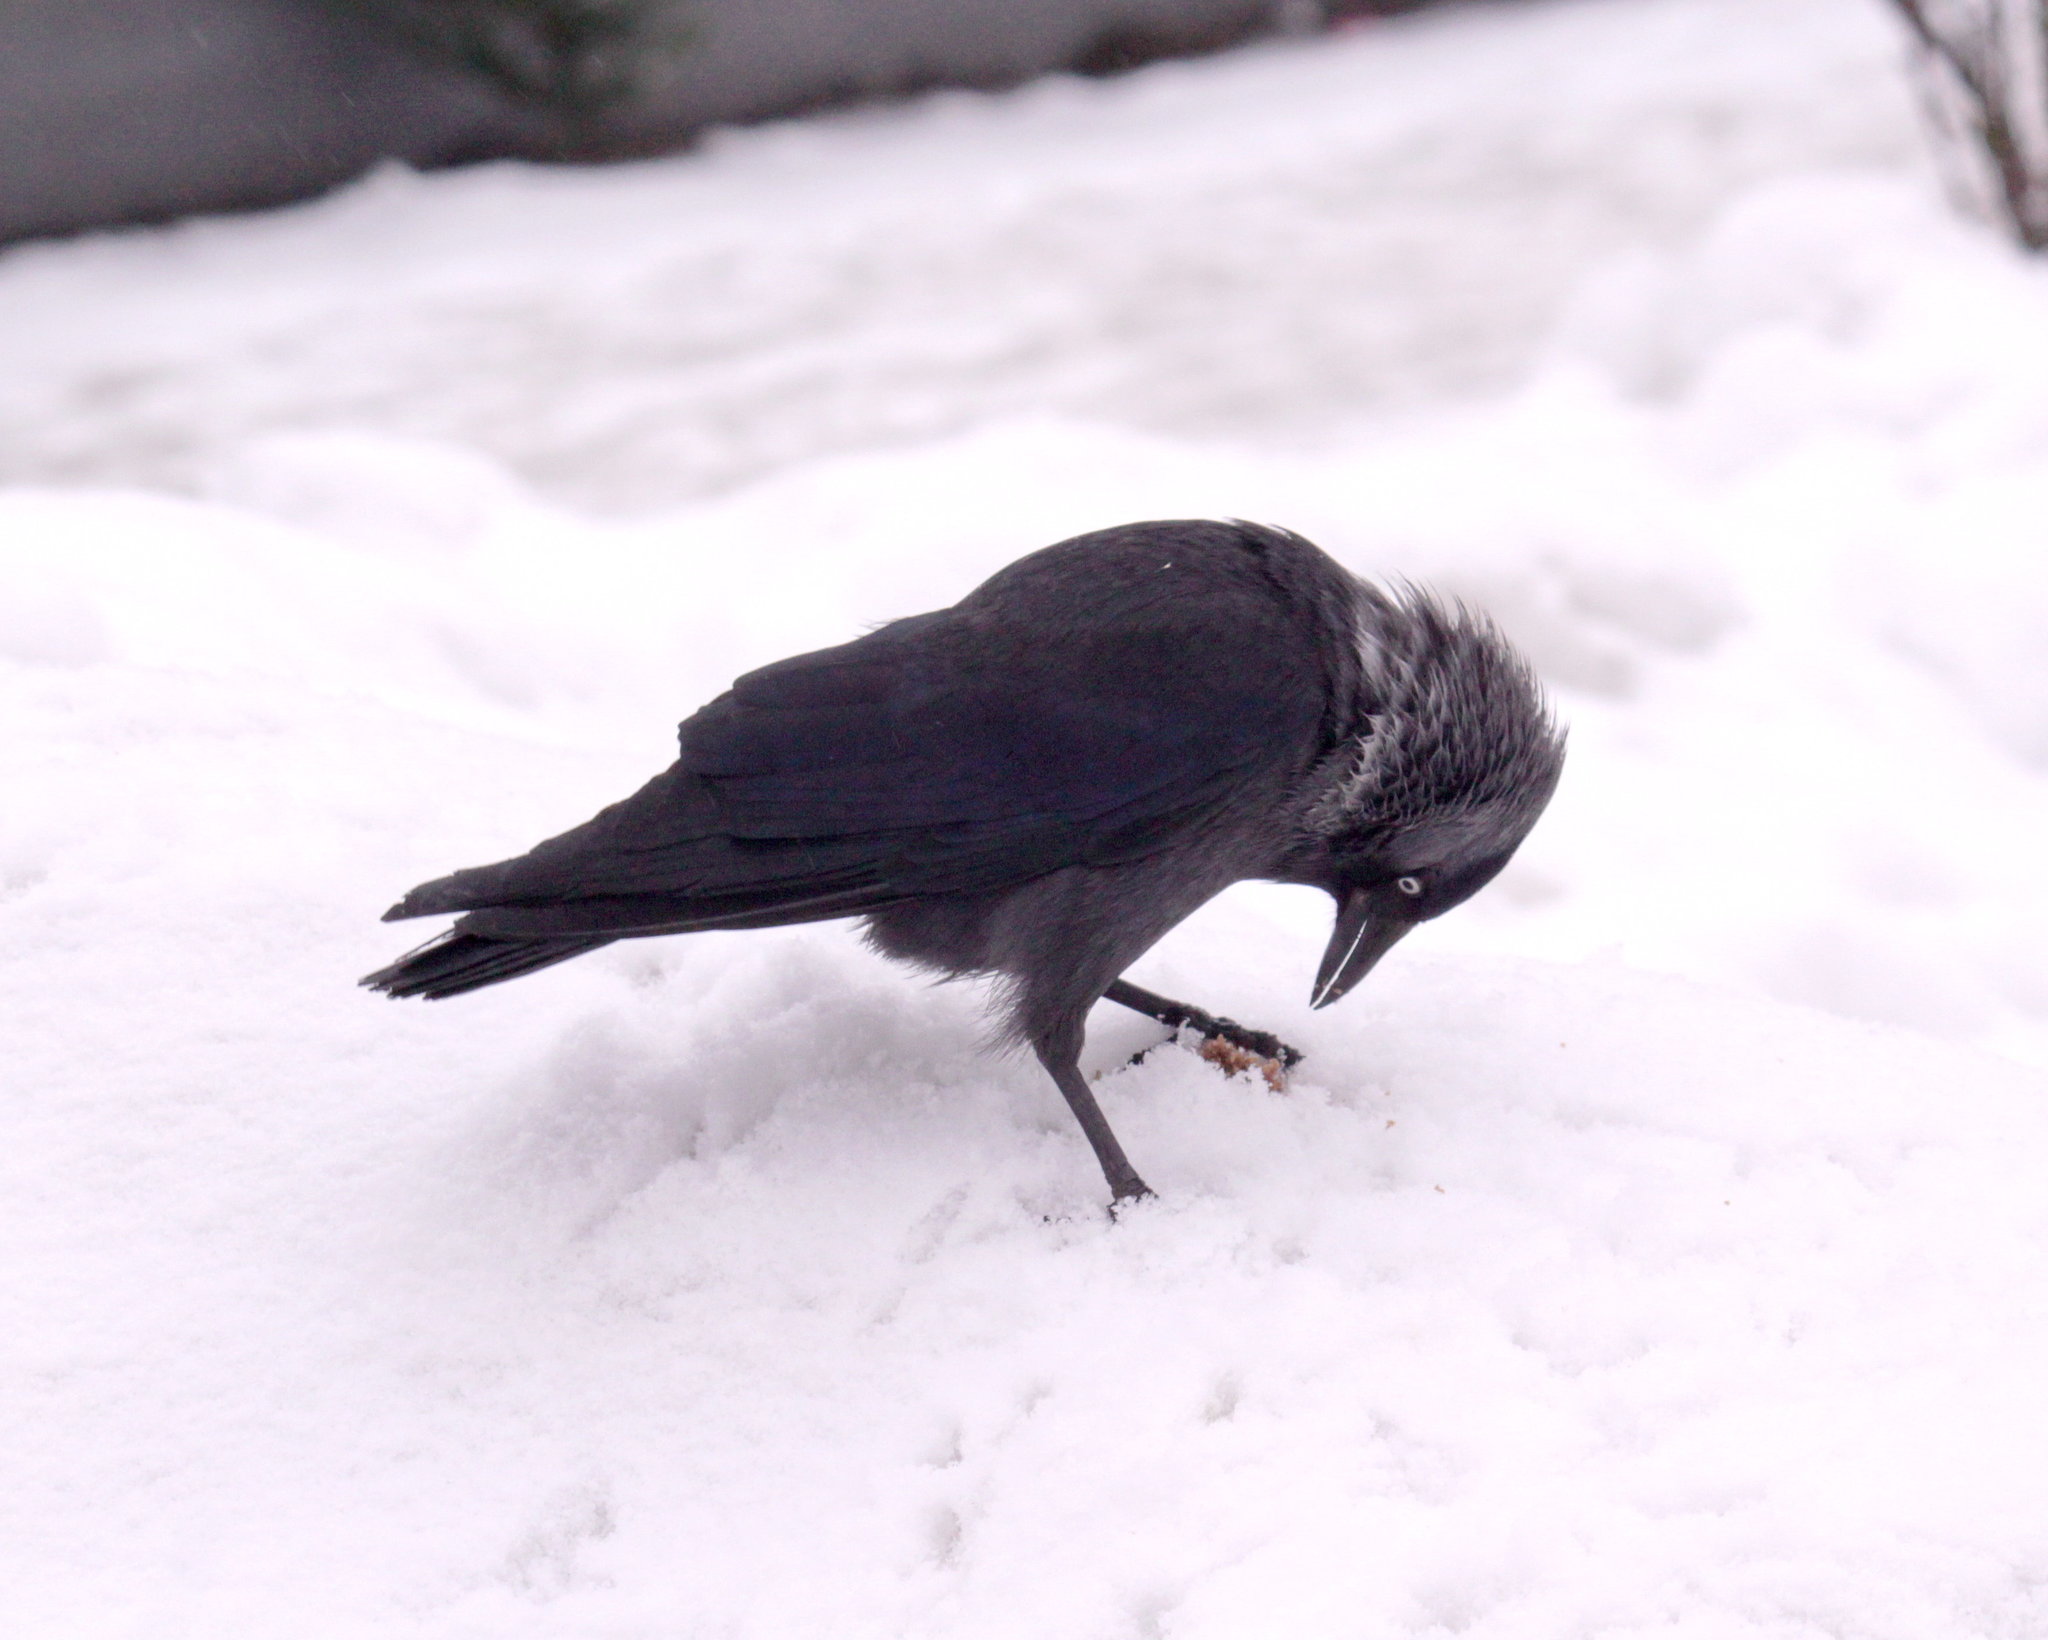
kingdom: Animalia
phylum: Chordata
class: Aves
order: Passeriformes
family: Corvidae
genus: Coloeus
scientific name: Coloeus monedula
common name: Western jackdaw
